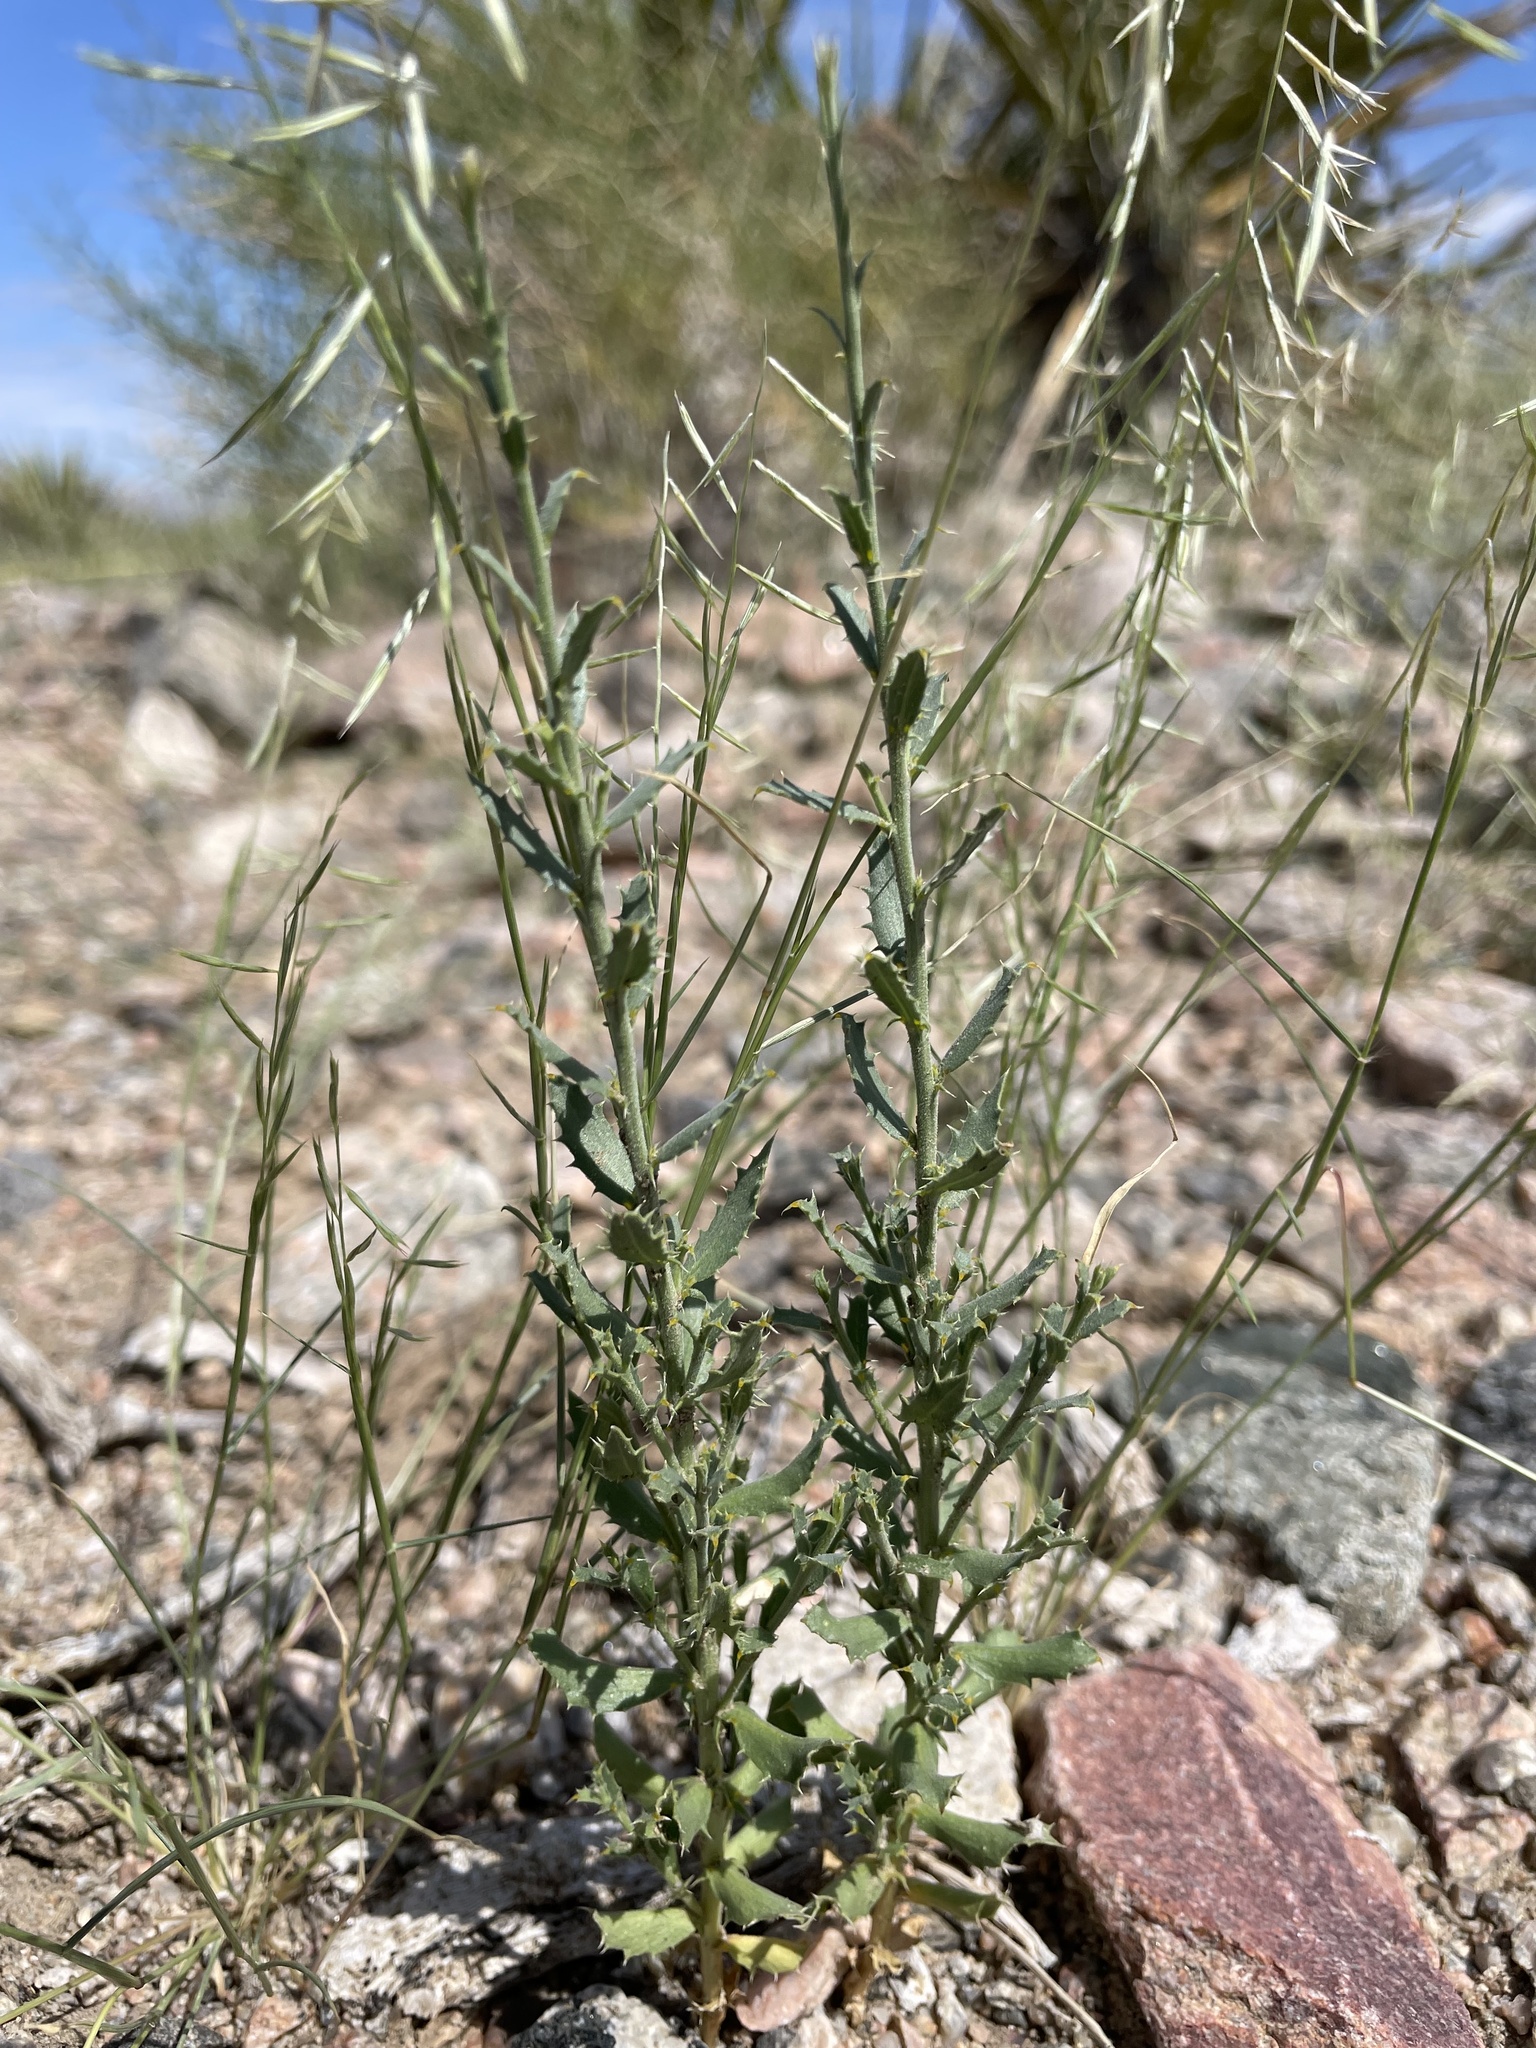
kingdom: Plantae
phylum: Tracheophyta
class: Magnoliopsida
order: Asterales
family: Asteraceae
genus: Adenophyllum
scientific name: Adenophyllum cooperi
